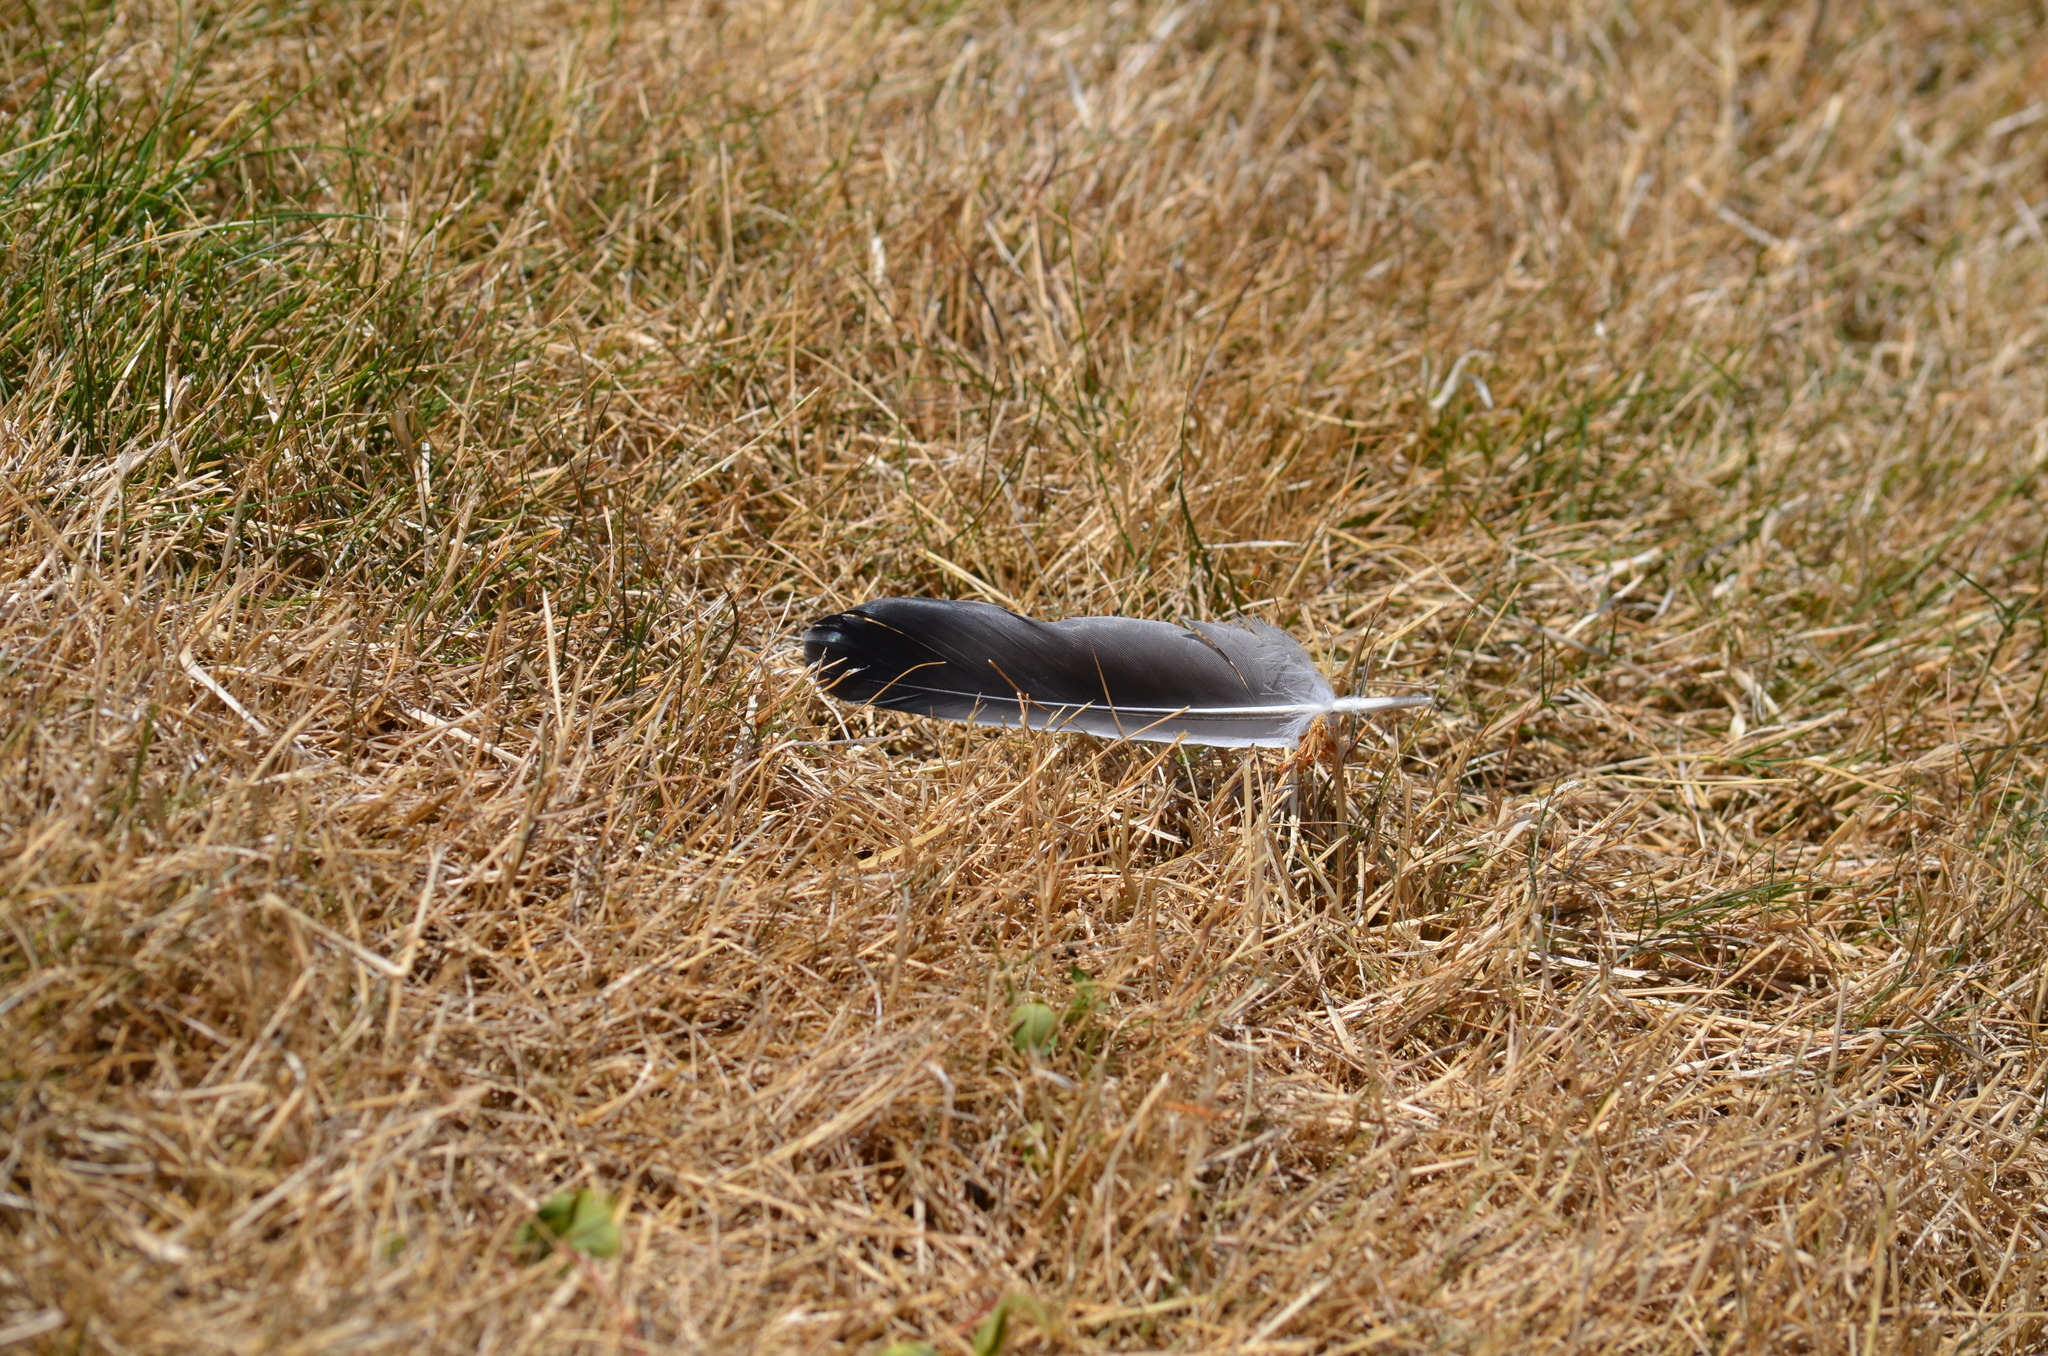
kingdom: Animalia
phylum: Chordata
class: Aves
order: Columbiformes
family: Columbidae
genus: Columba
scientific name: Columba livia
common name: Rock pigeon
